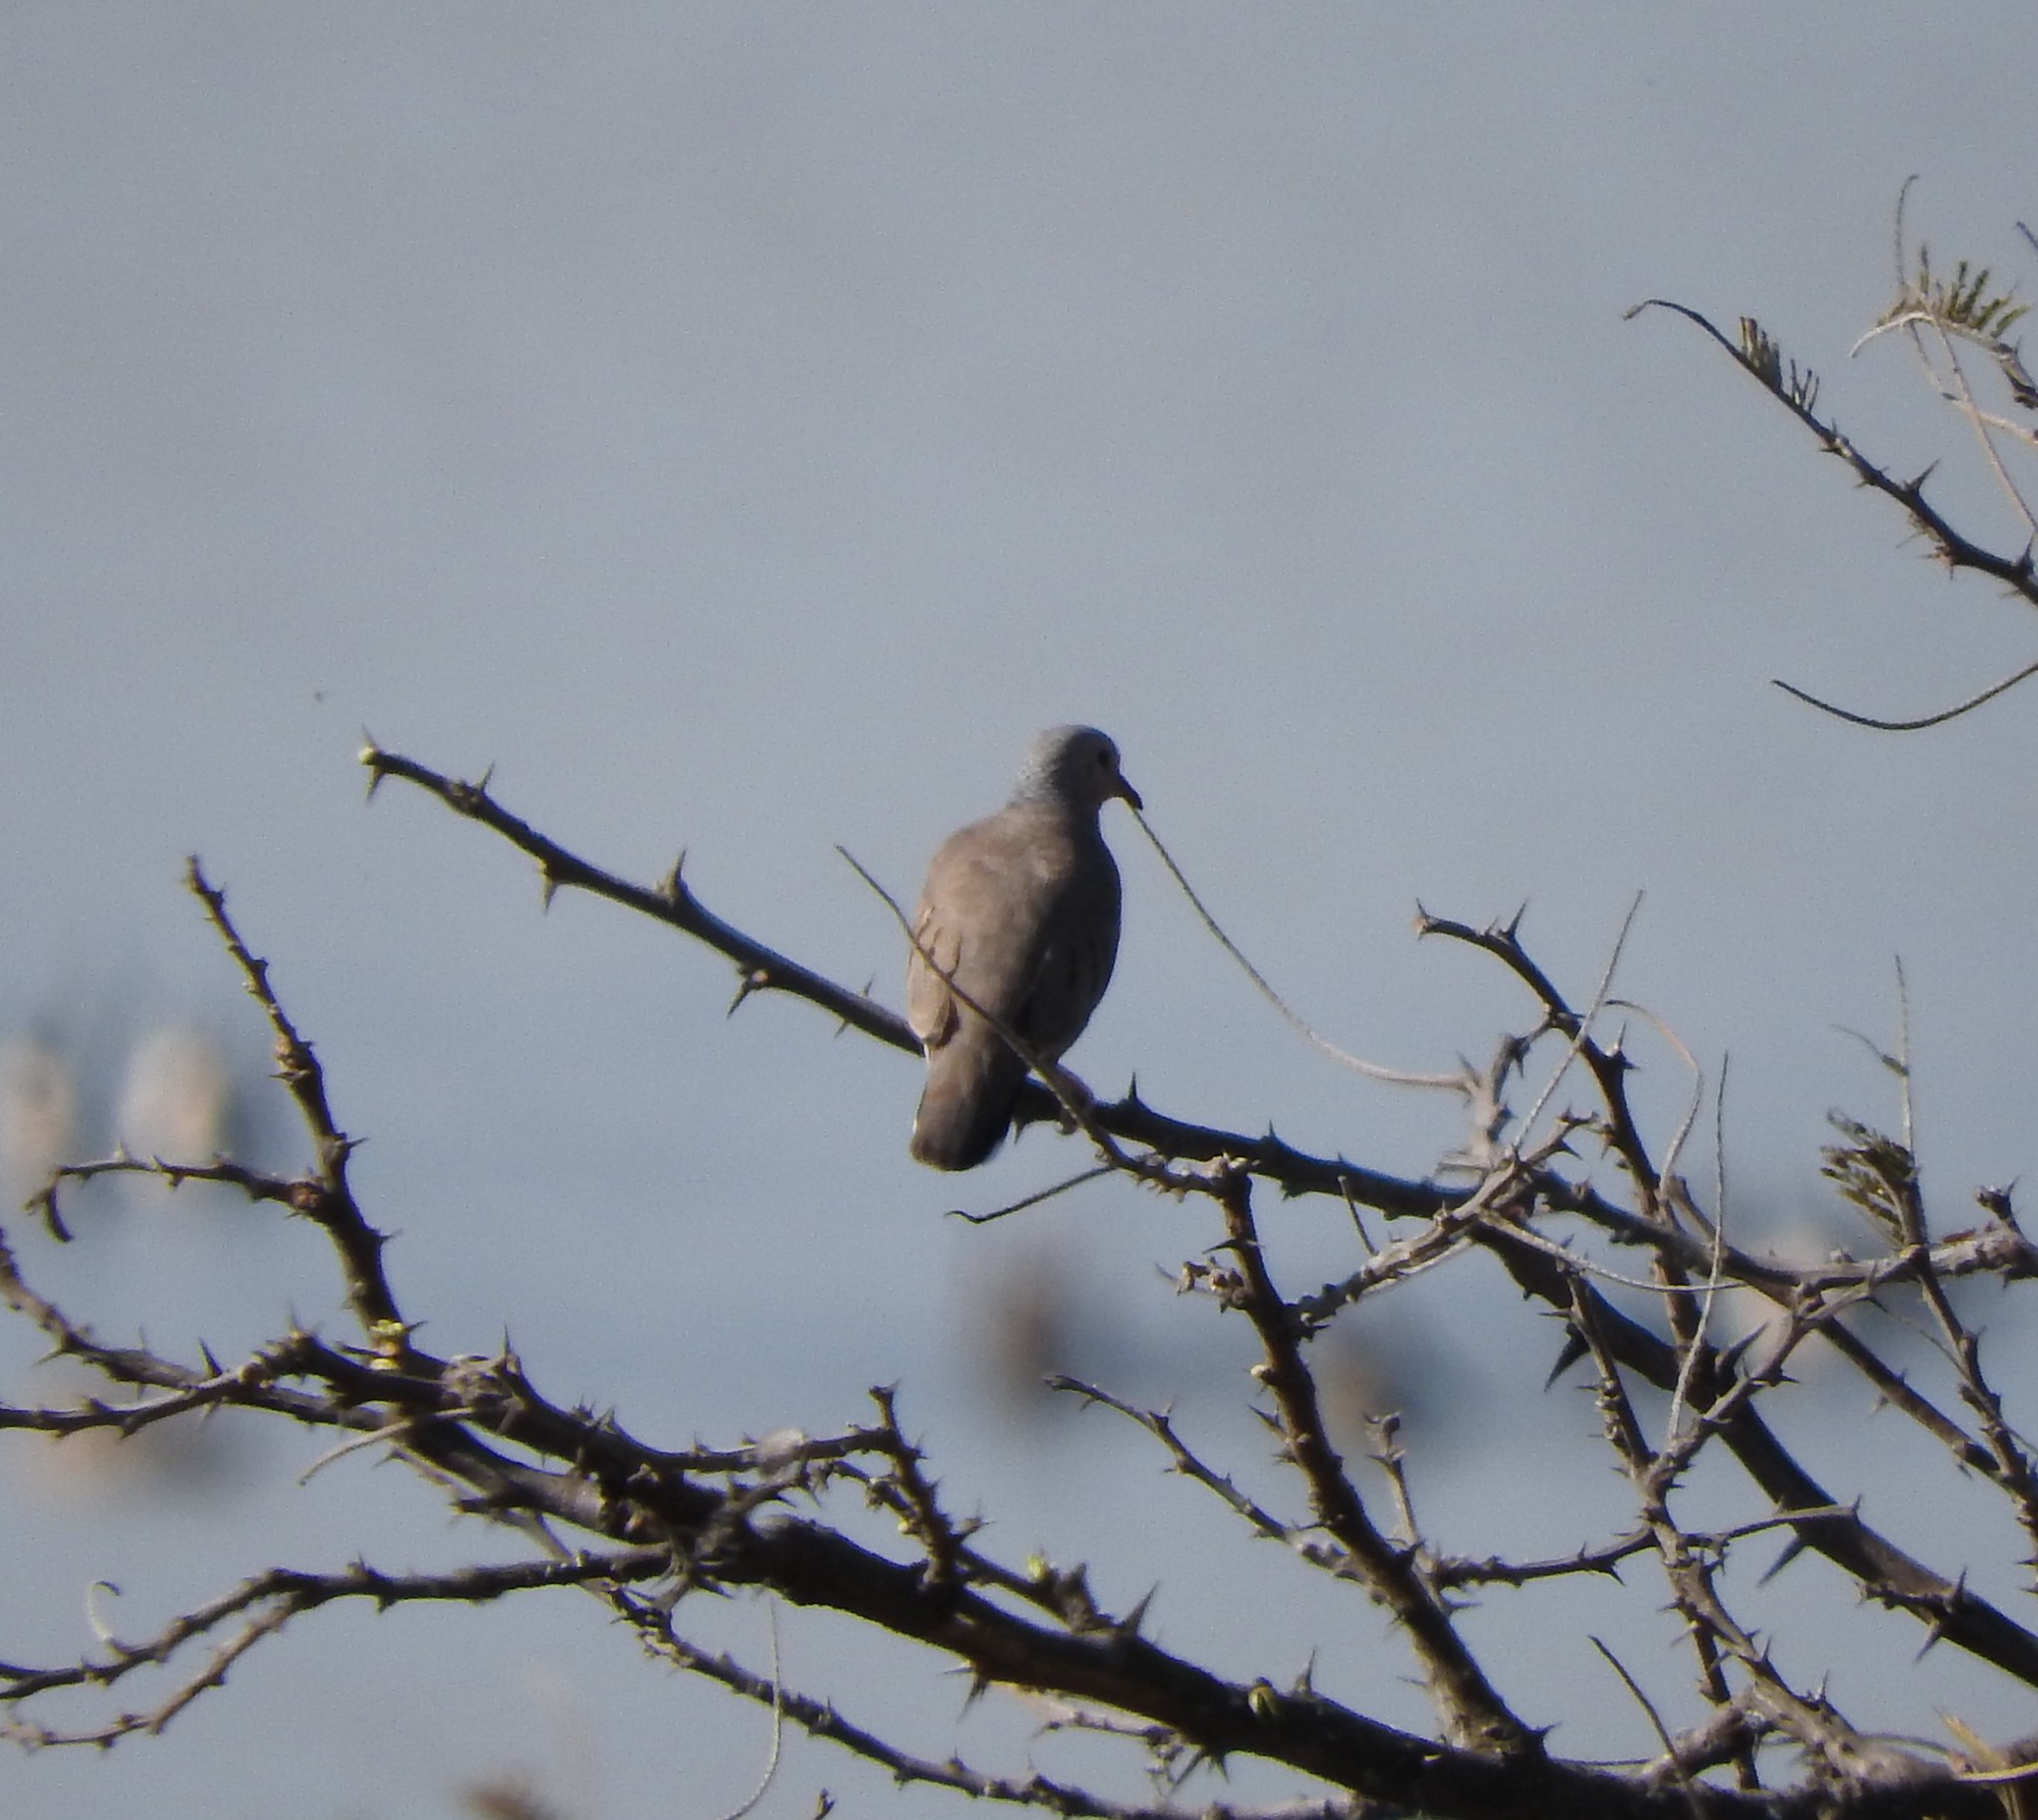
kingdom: Animalia
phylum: Chordata
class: Aves
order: Columbiformes
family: Columbidae
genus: Columbina
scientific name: Columbina passerina
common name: Common ground-dove
